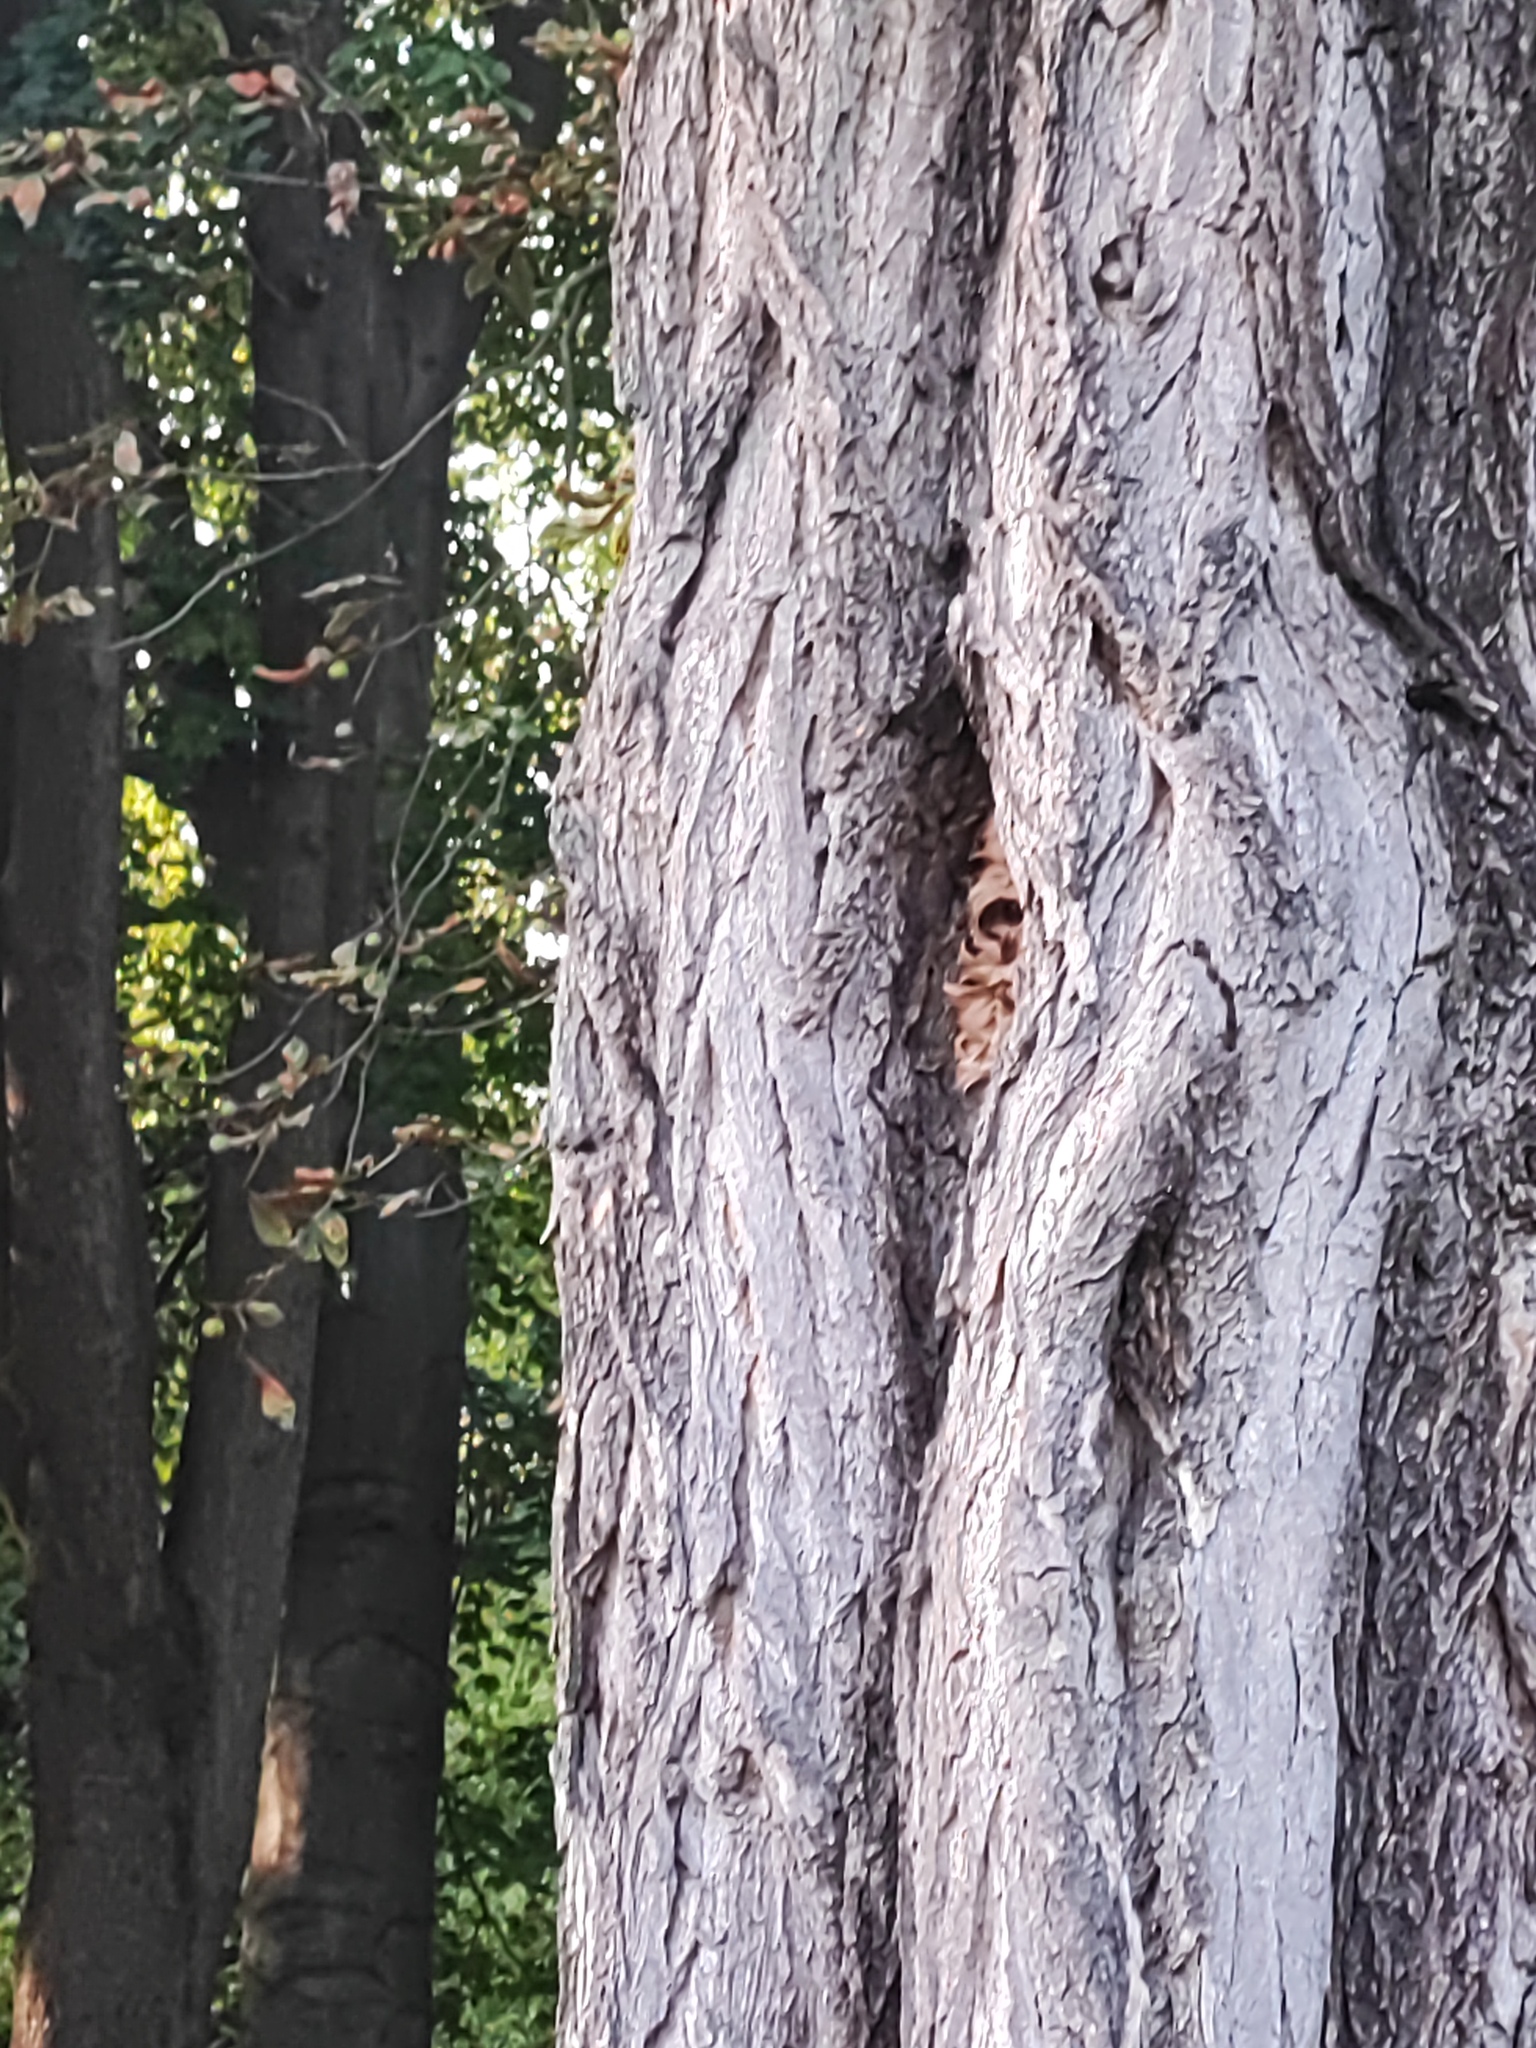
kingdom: Animalia
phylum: Arthropoda
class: Insecta
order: Hymenoptera
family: Vespidae
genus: Vespa
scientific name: Vespa crabro
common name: Hornet
